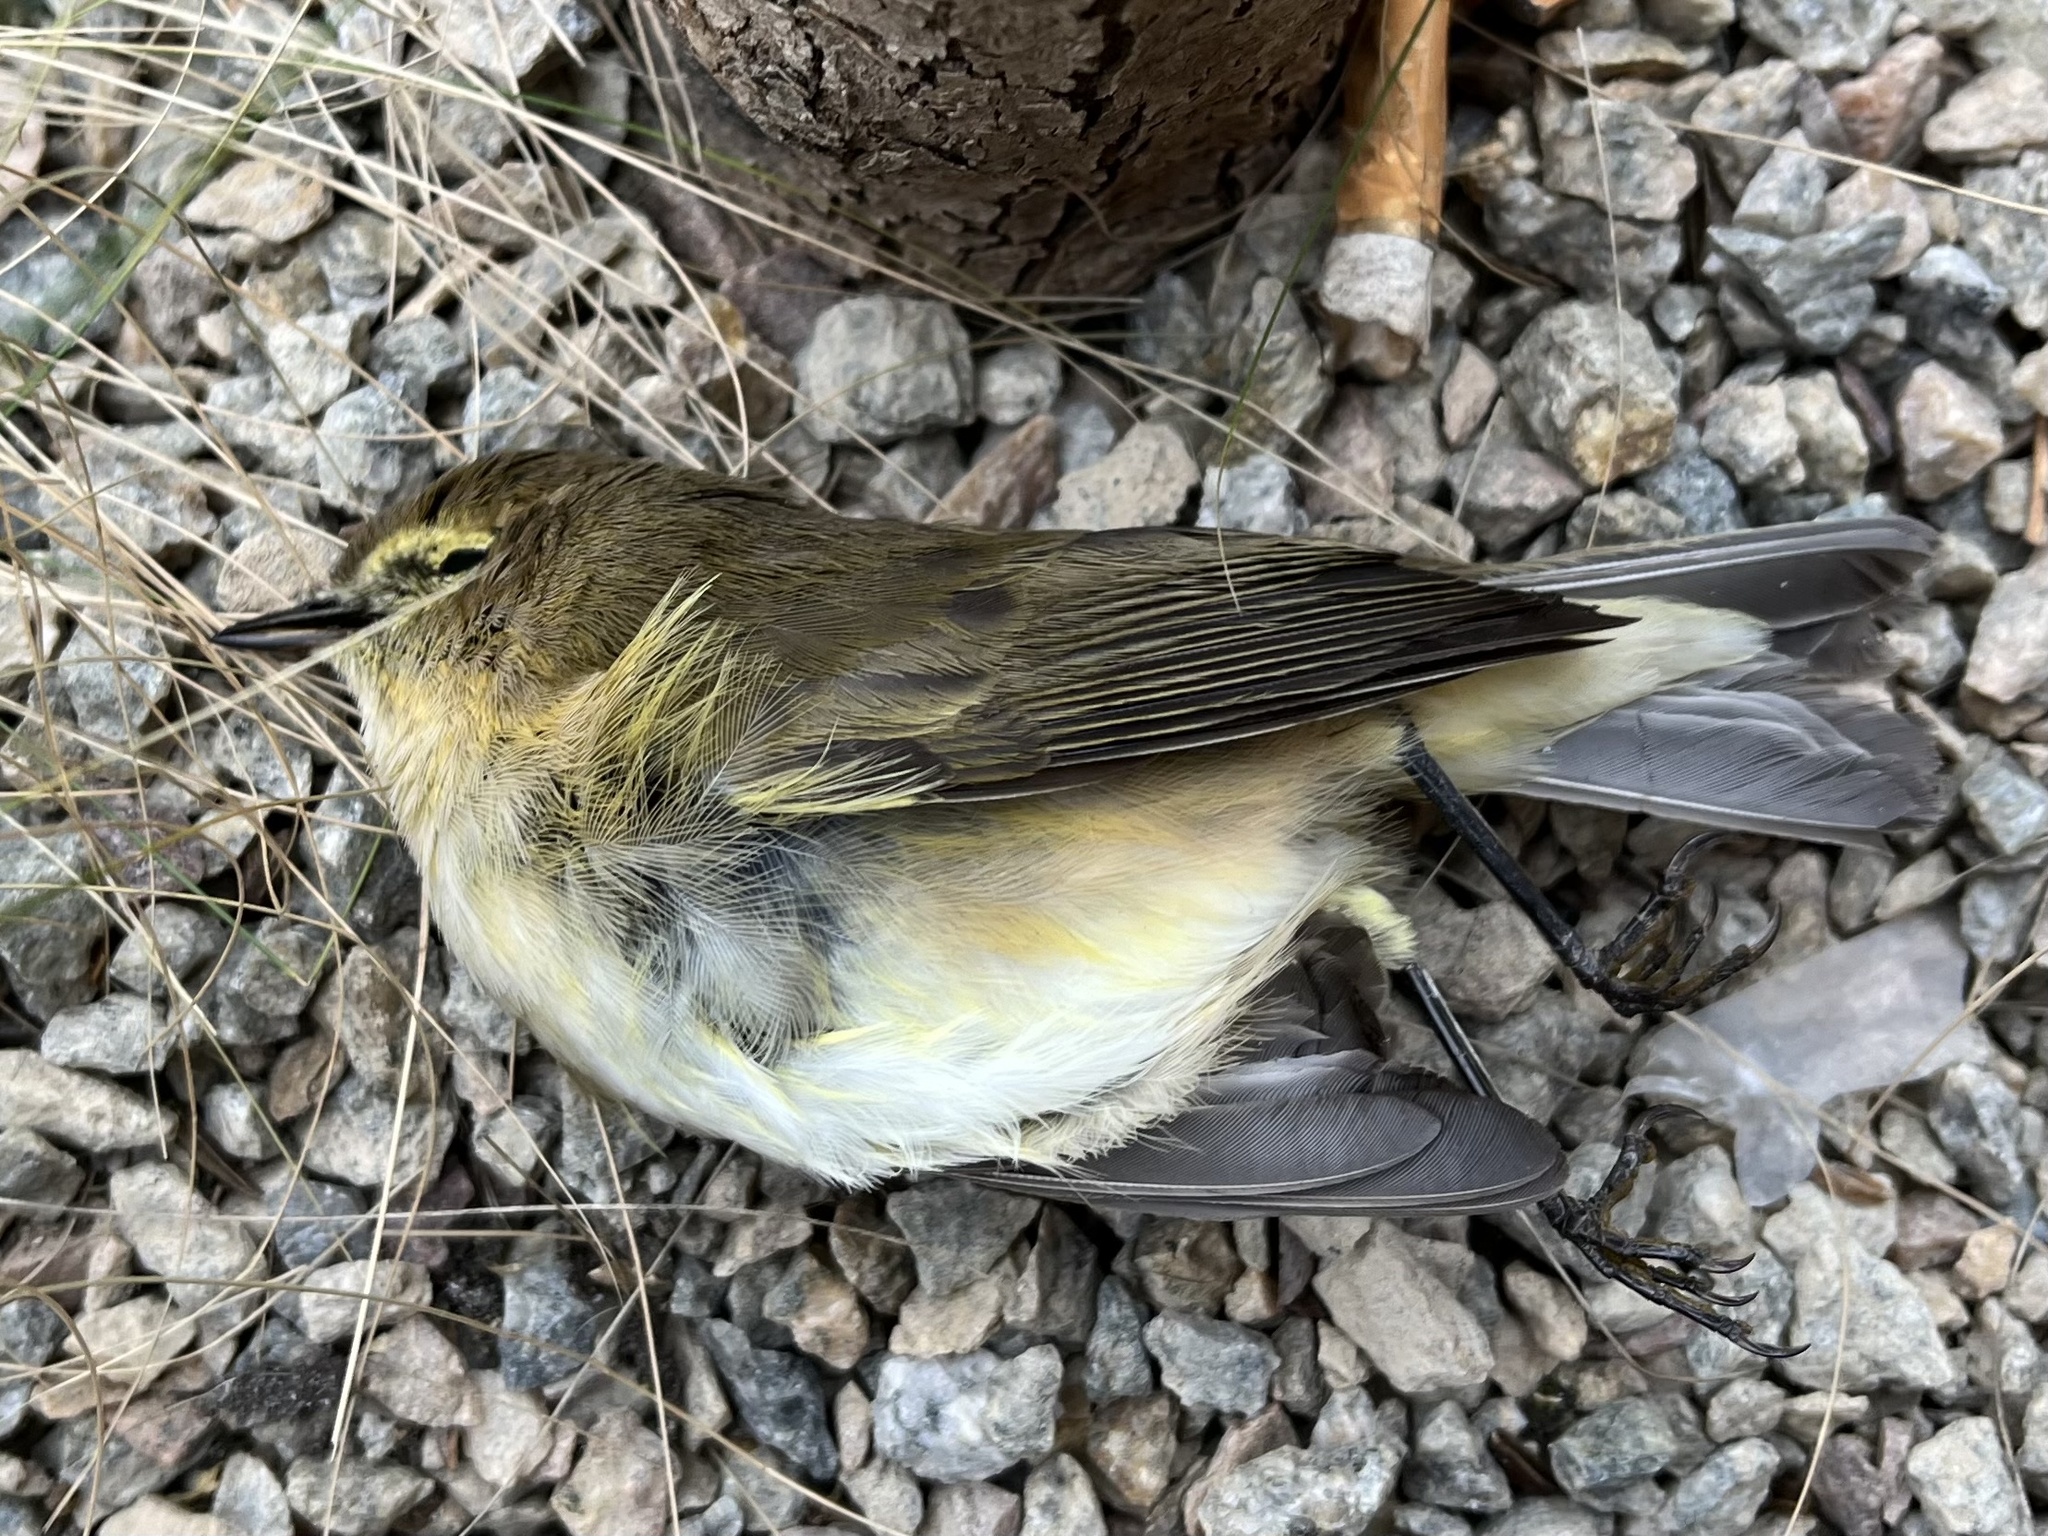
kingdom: Animalia
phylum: Chordata
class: Aves
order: Passeriformes
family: Phylloscopidae
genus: Phylloscopus
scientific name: Phylloscopus collybita
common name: Common chiffchaff
